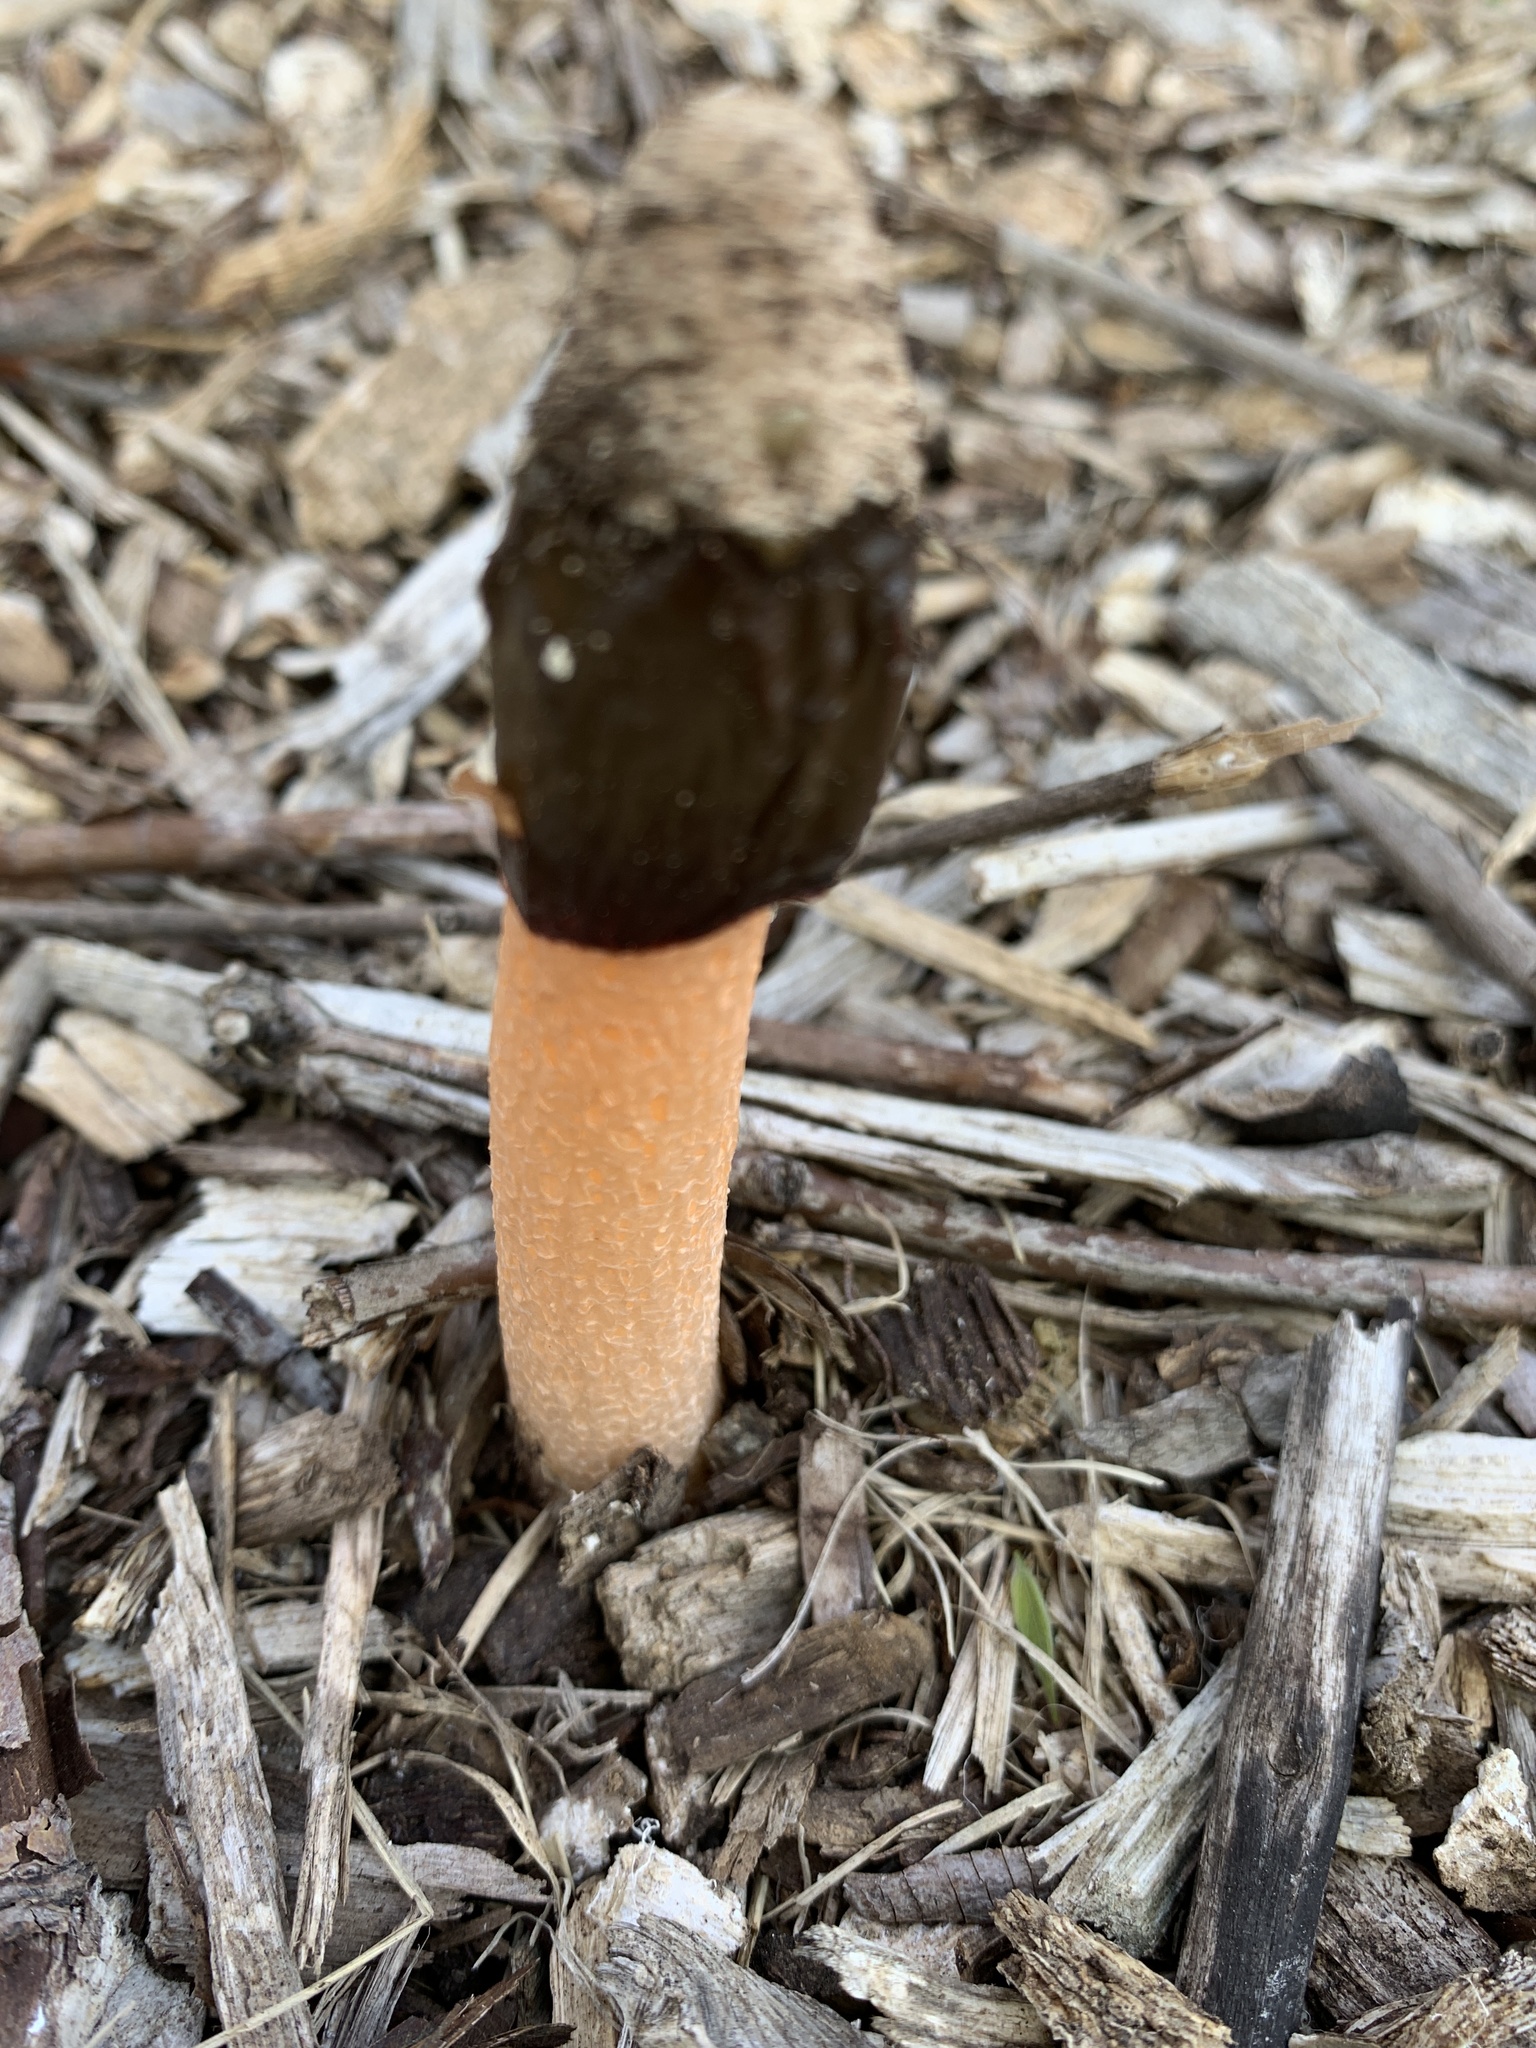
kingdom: Fungi
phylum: Basidiomycota
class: Agaricomycetes
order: Phallales
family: Phallaceae
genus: Phallus
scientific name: Phallus rugulosus
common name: Wrinkly stinkhorn
